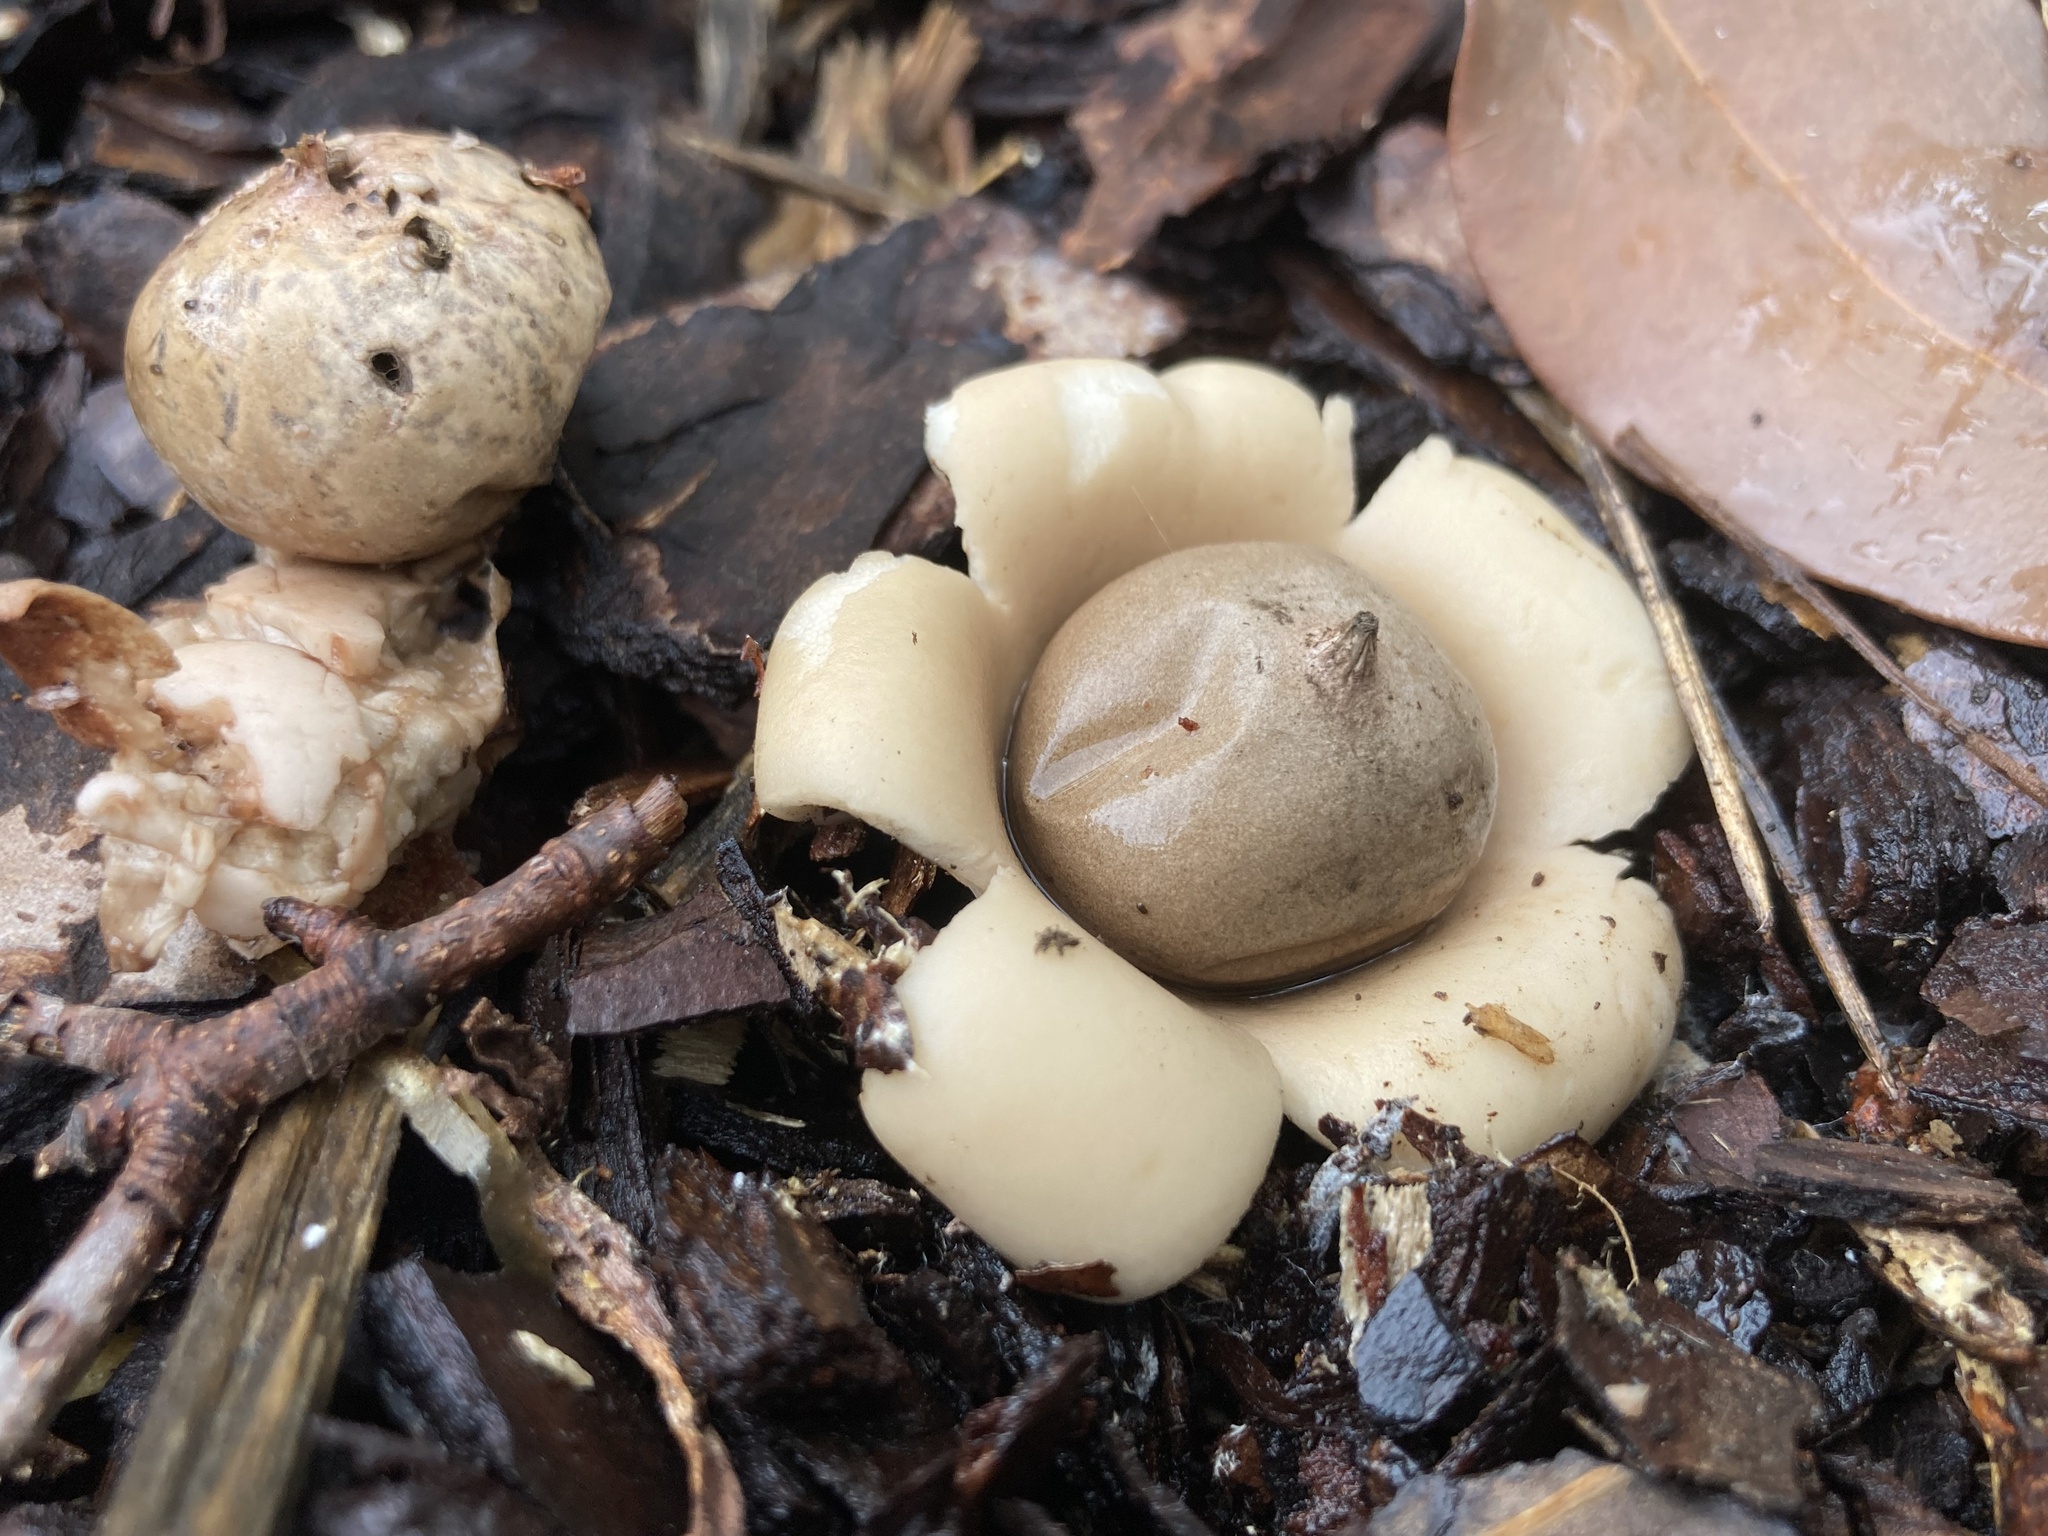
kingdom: Fungi
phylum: Basidiomycota
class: Agaricomycetes
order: Geastrales
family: Geastraceae
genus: Geastrum
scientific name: Geastrum saccatum
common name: Rounded earthstar
